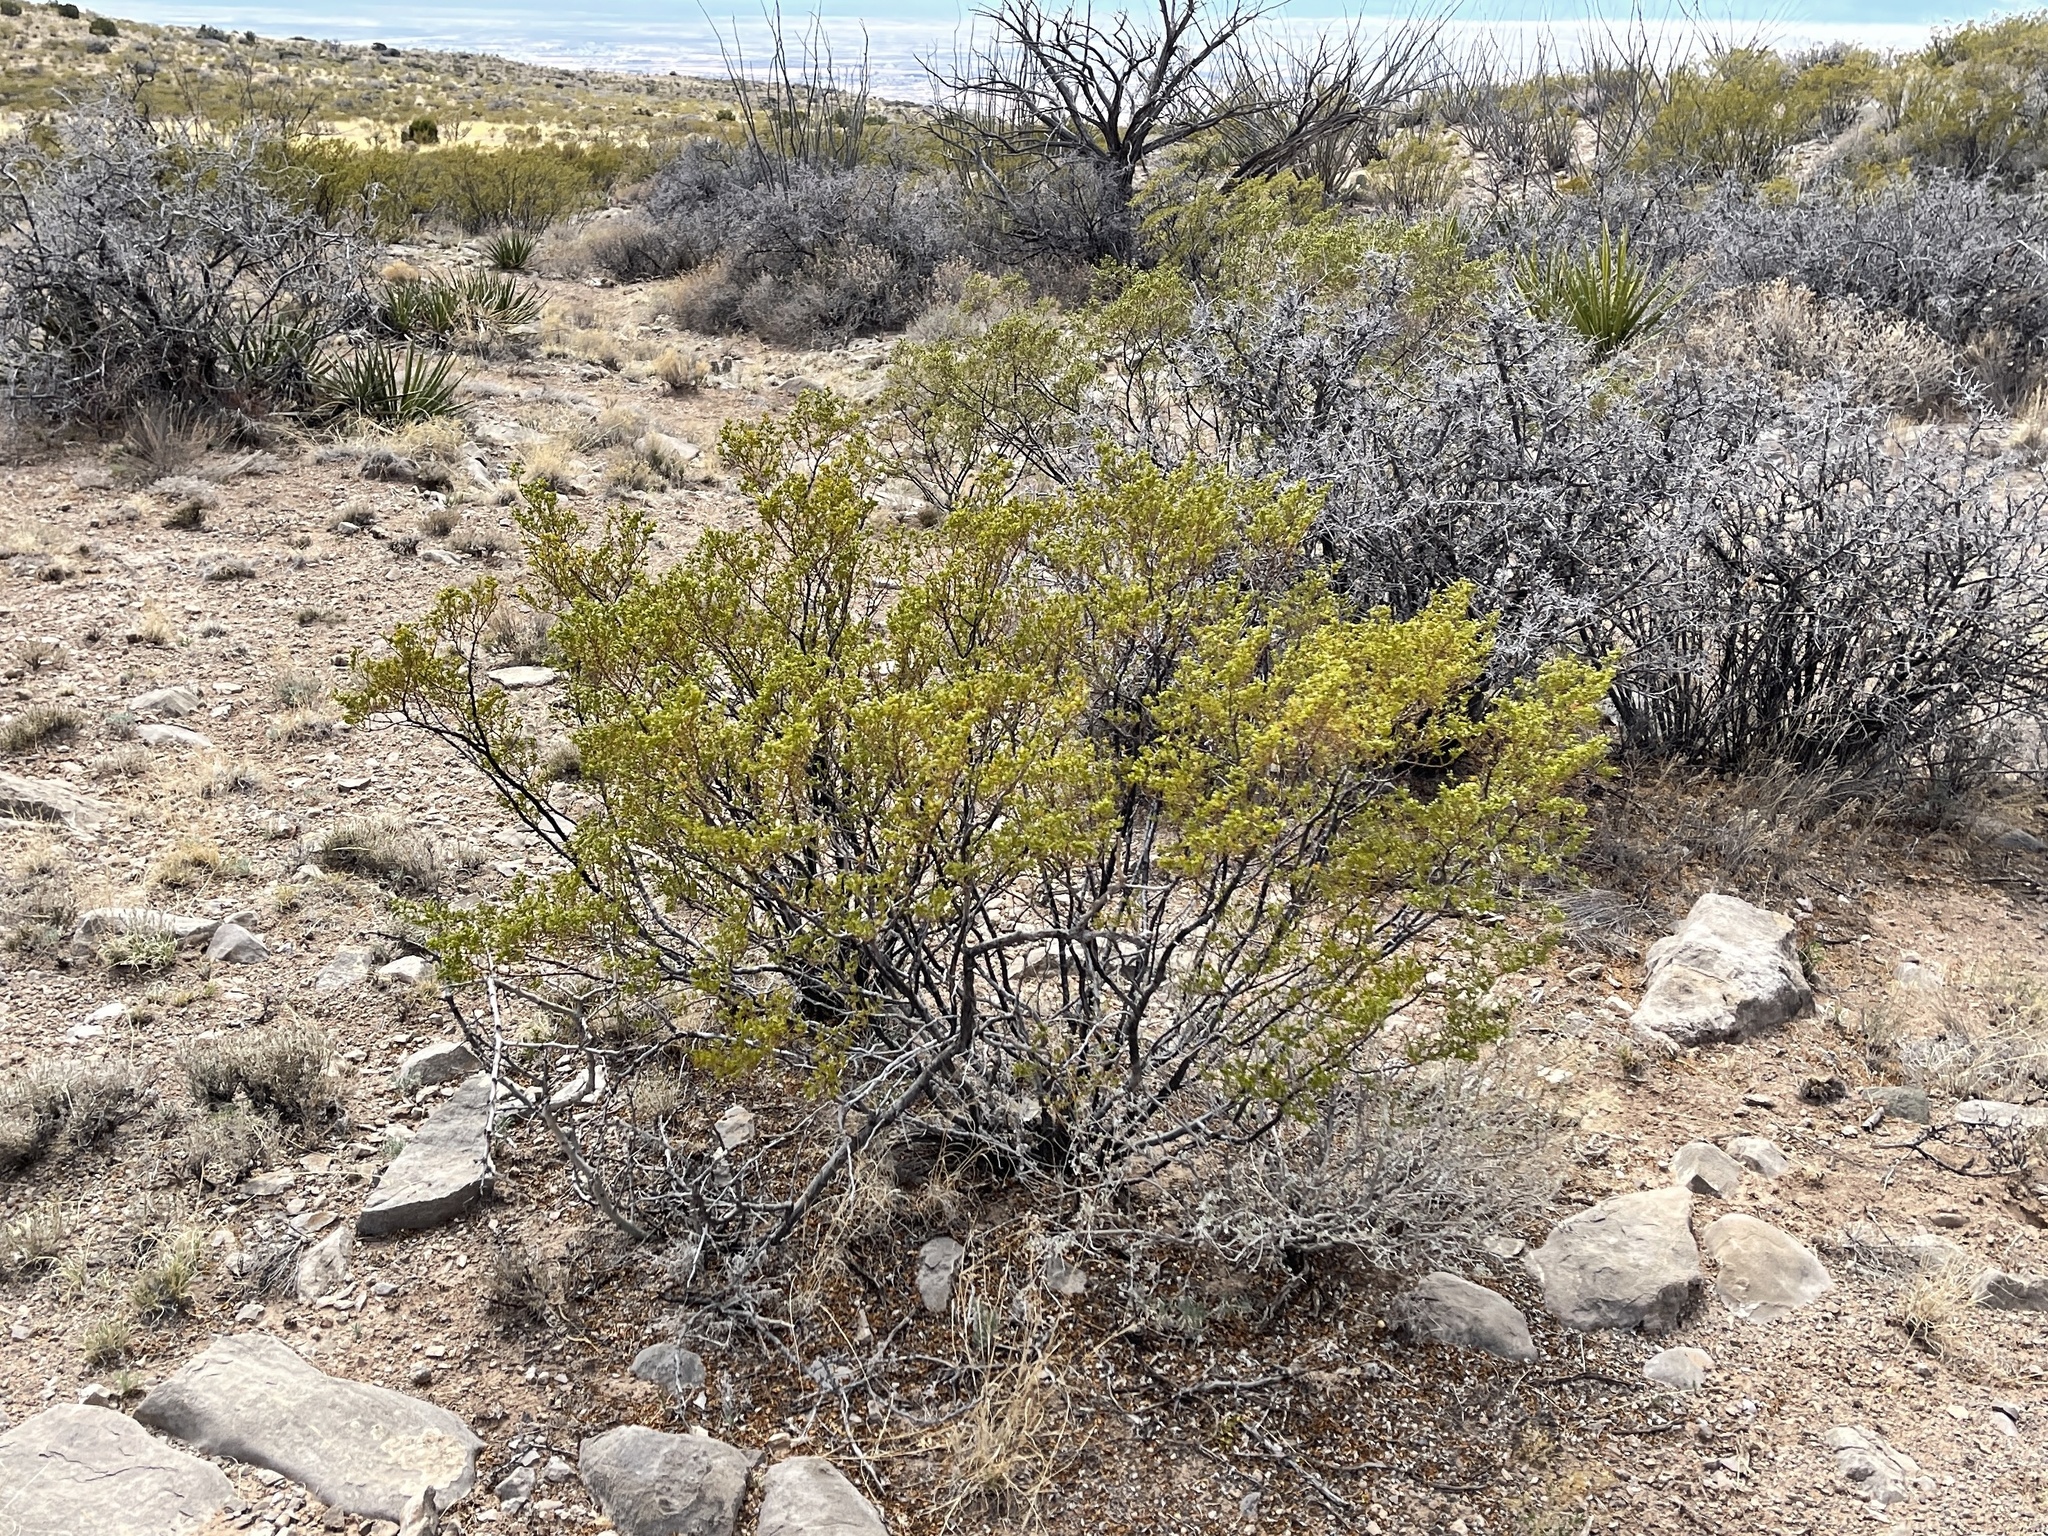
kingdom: Plantae
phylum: Tracheophyta
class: Magnoliopsida
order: Zygophyllales
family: Zygophyllaceae
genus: Larrea
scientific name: Larrea tridentata
